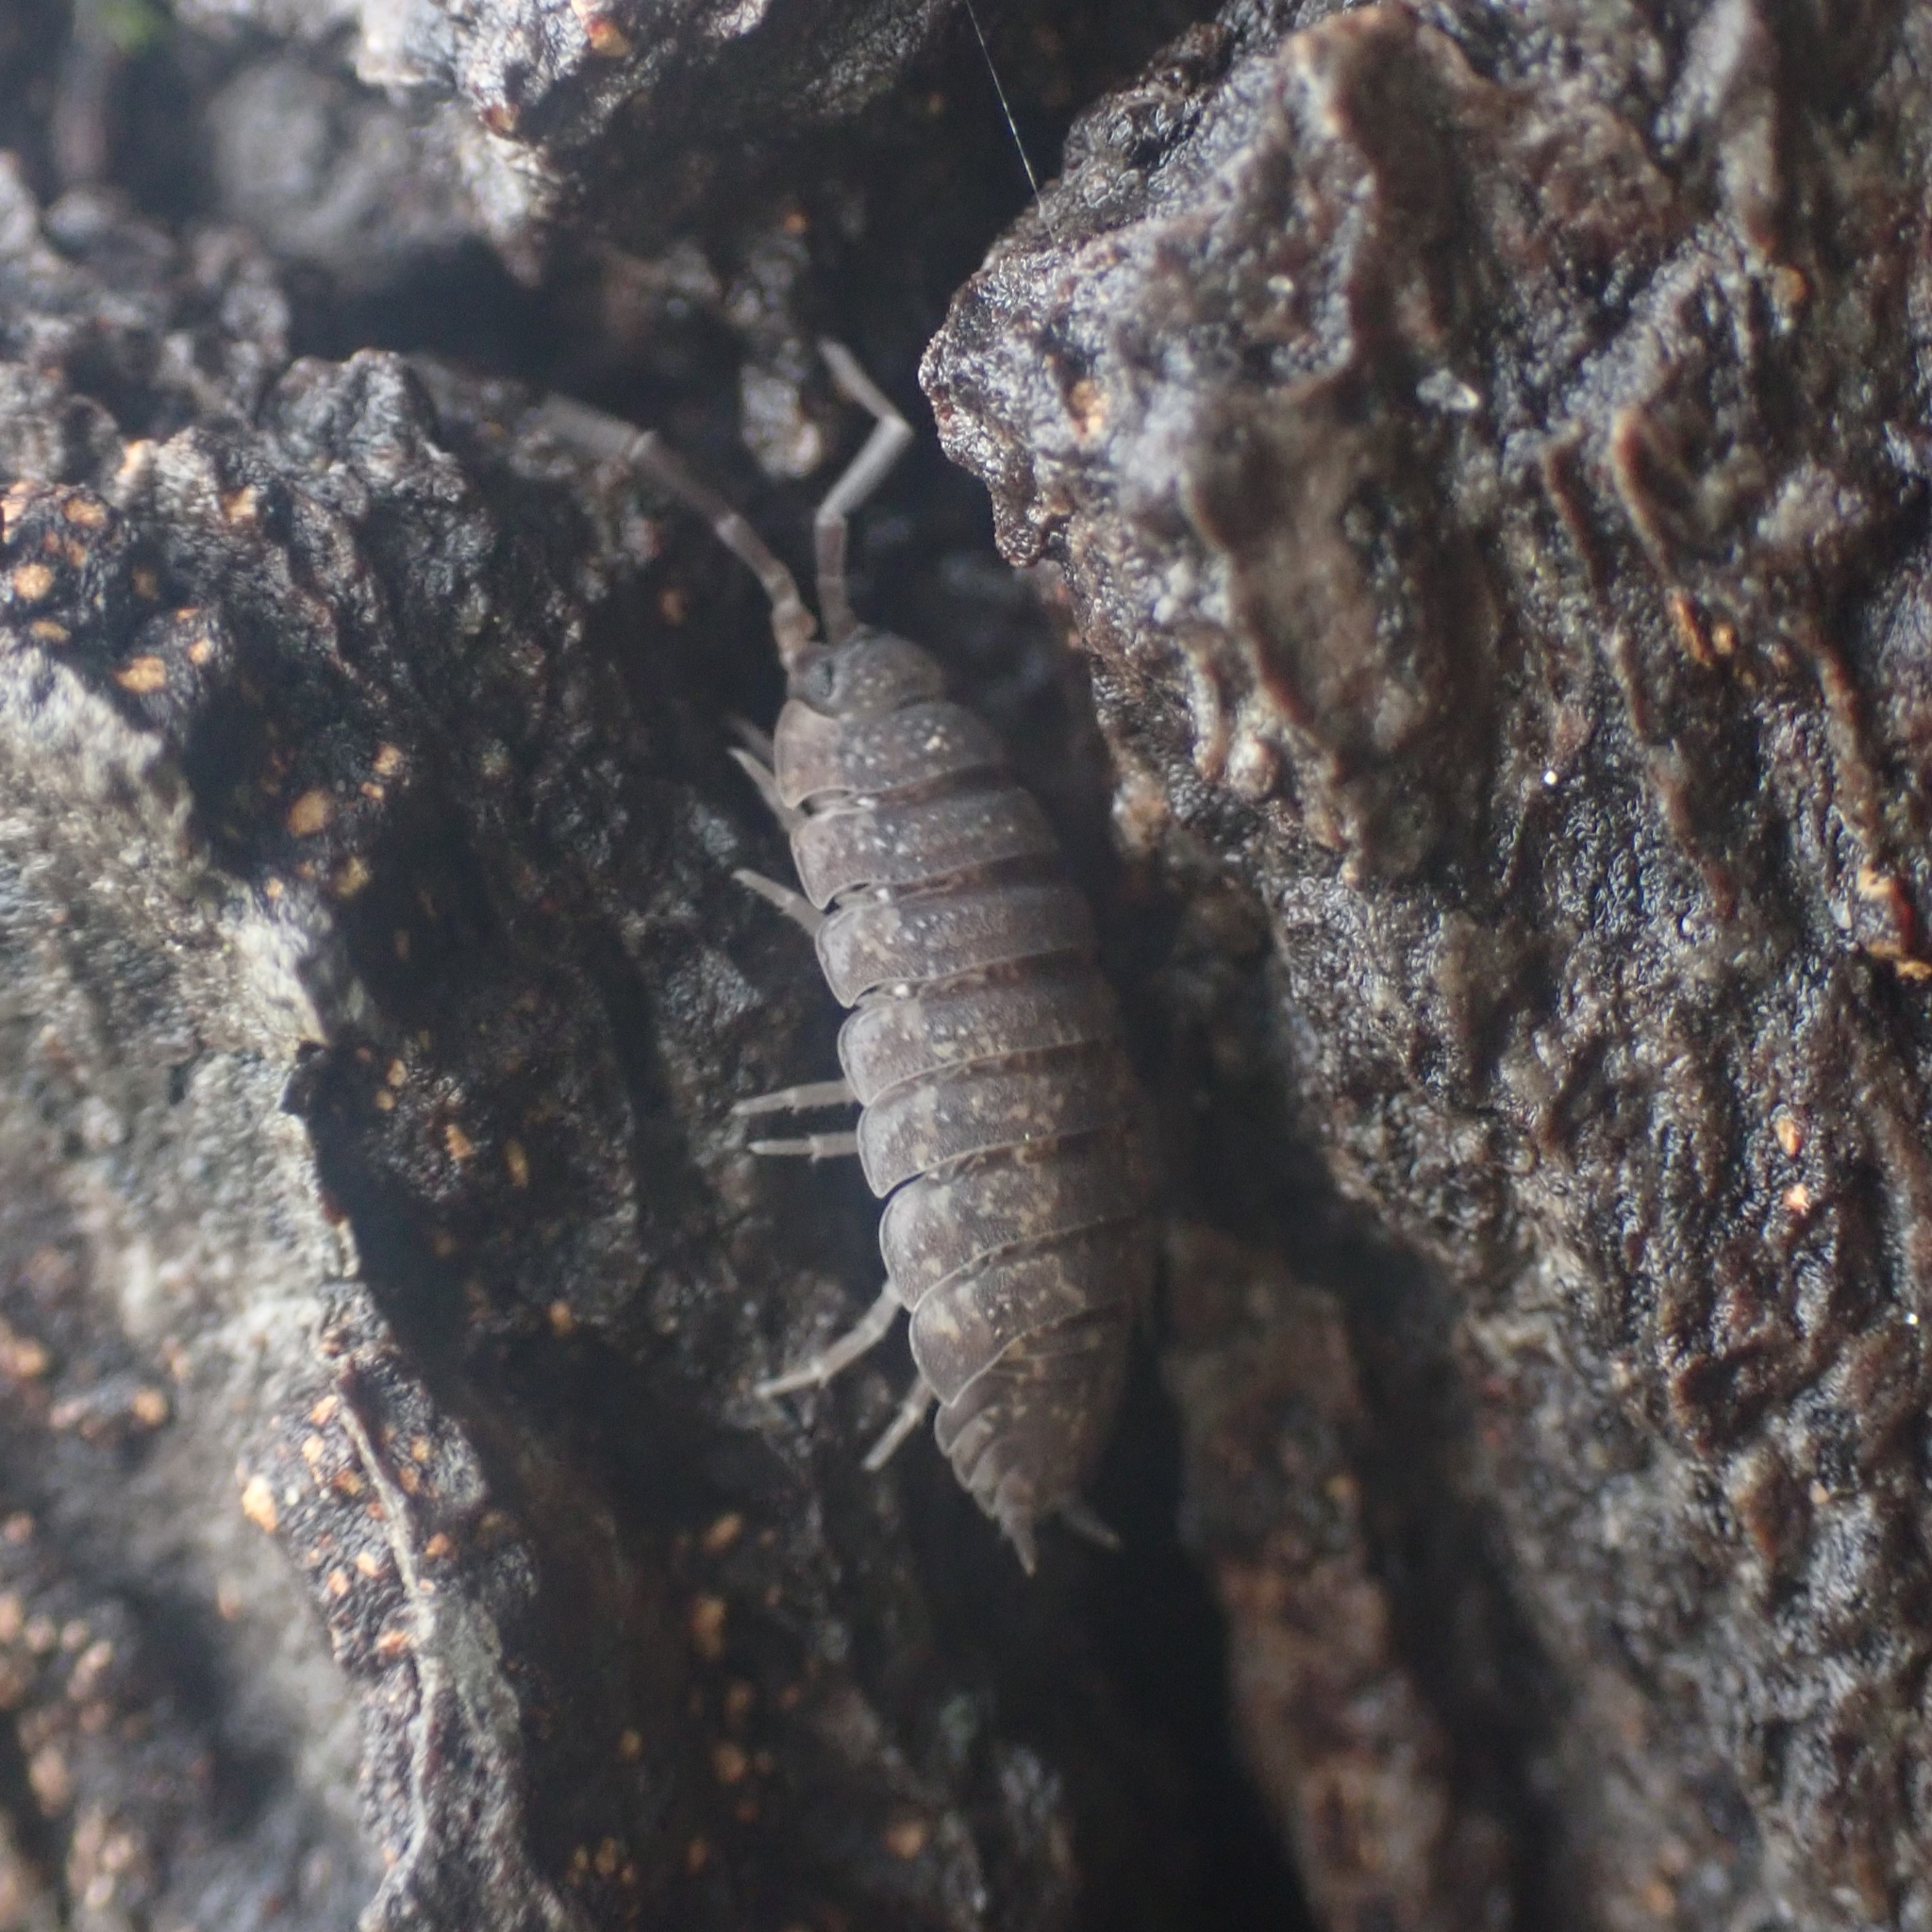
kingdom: Animalia
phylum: Arthropoda
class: Malacostraca
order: Isopoda
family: Porcellionidae
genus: Porcellio
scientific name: Porcellio scaber
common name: Common rough woodlouse
